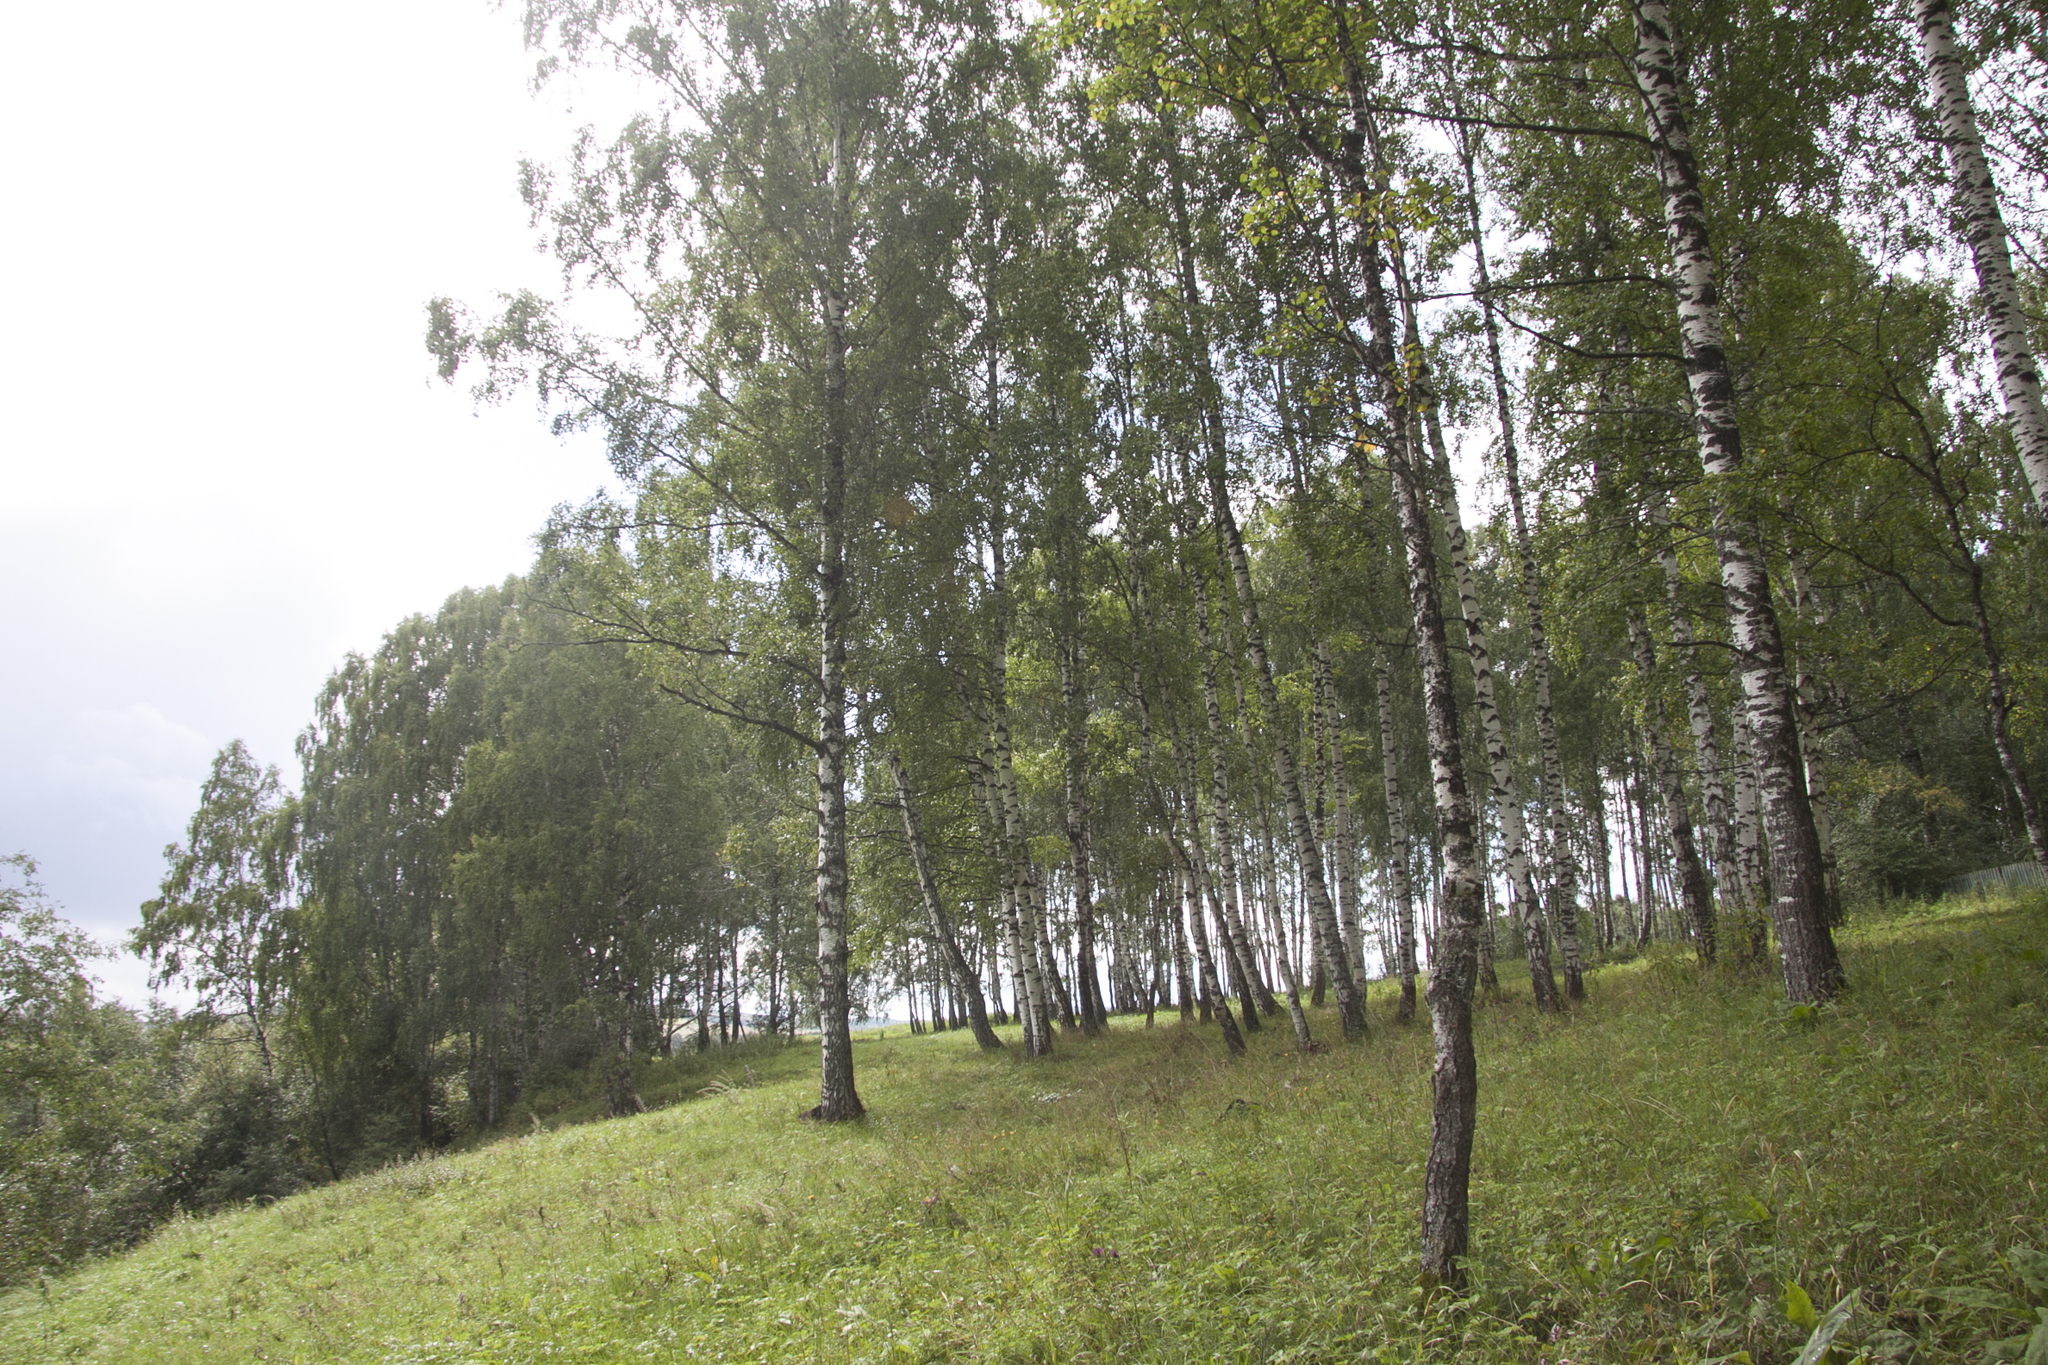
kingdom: Plantae
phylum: Tracheophyta
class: Magnoliopsida
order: Fagales
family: Betulaceae
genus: Betula
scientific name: Betula pendula
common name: Silver birch
